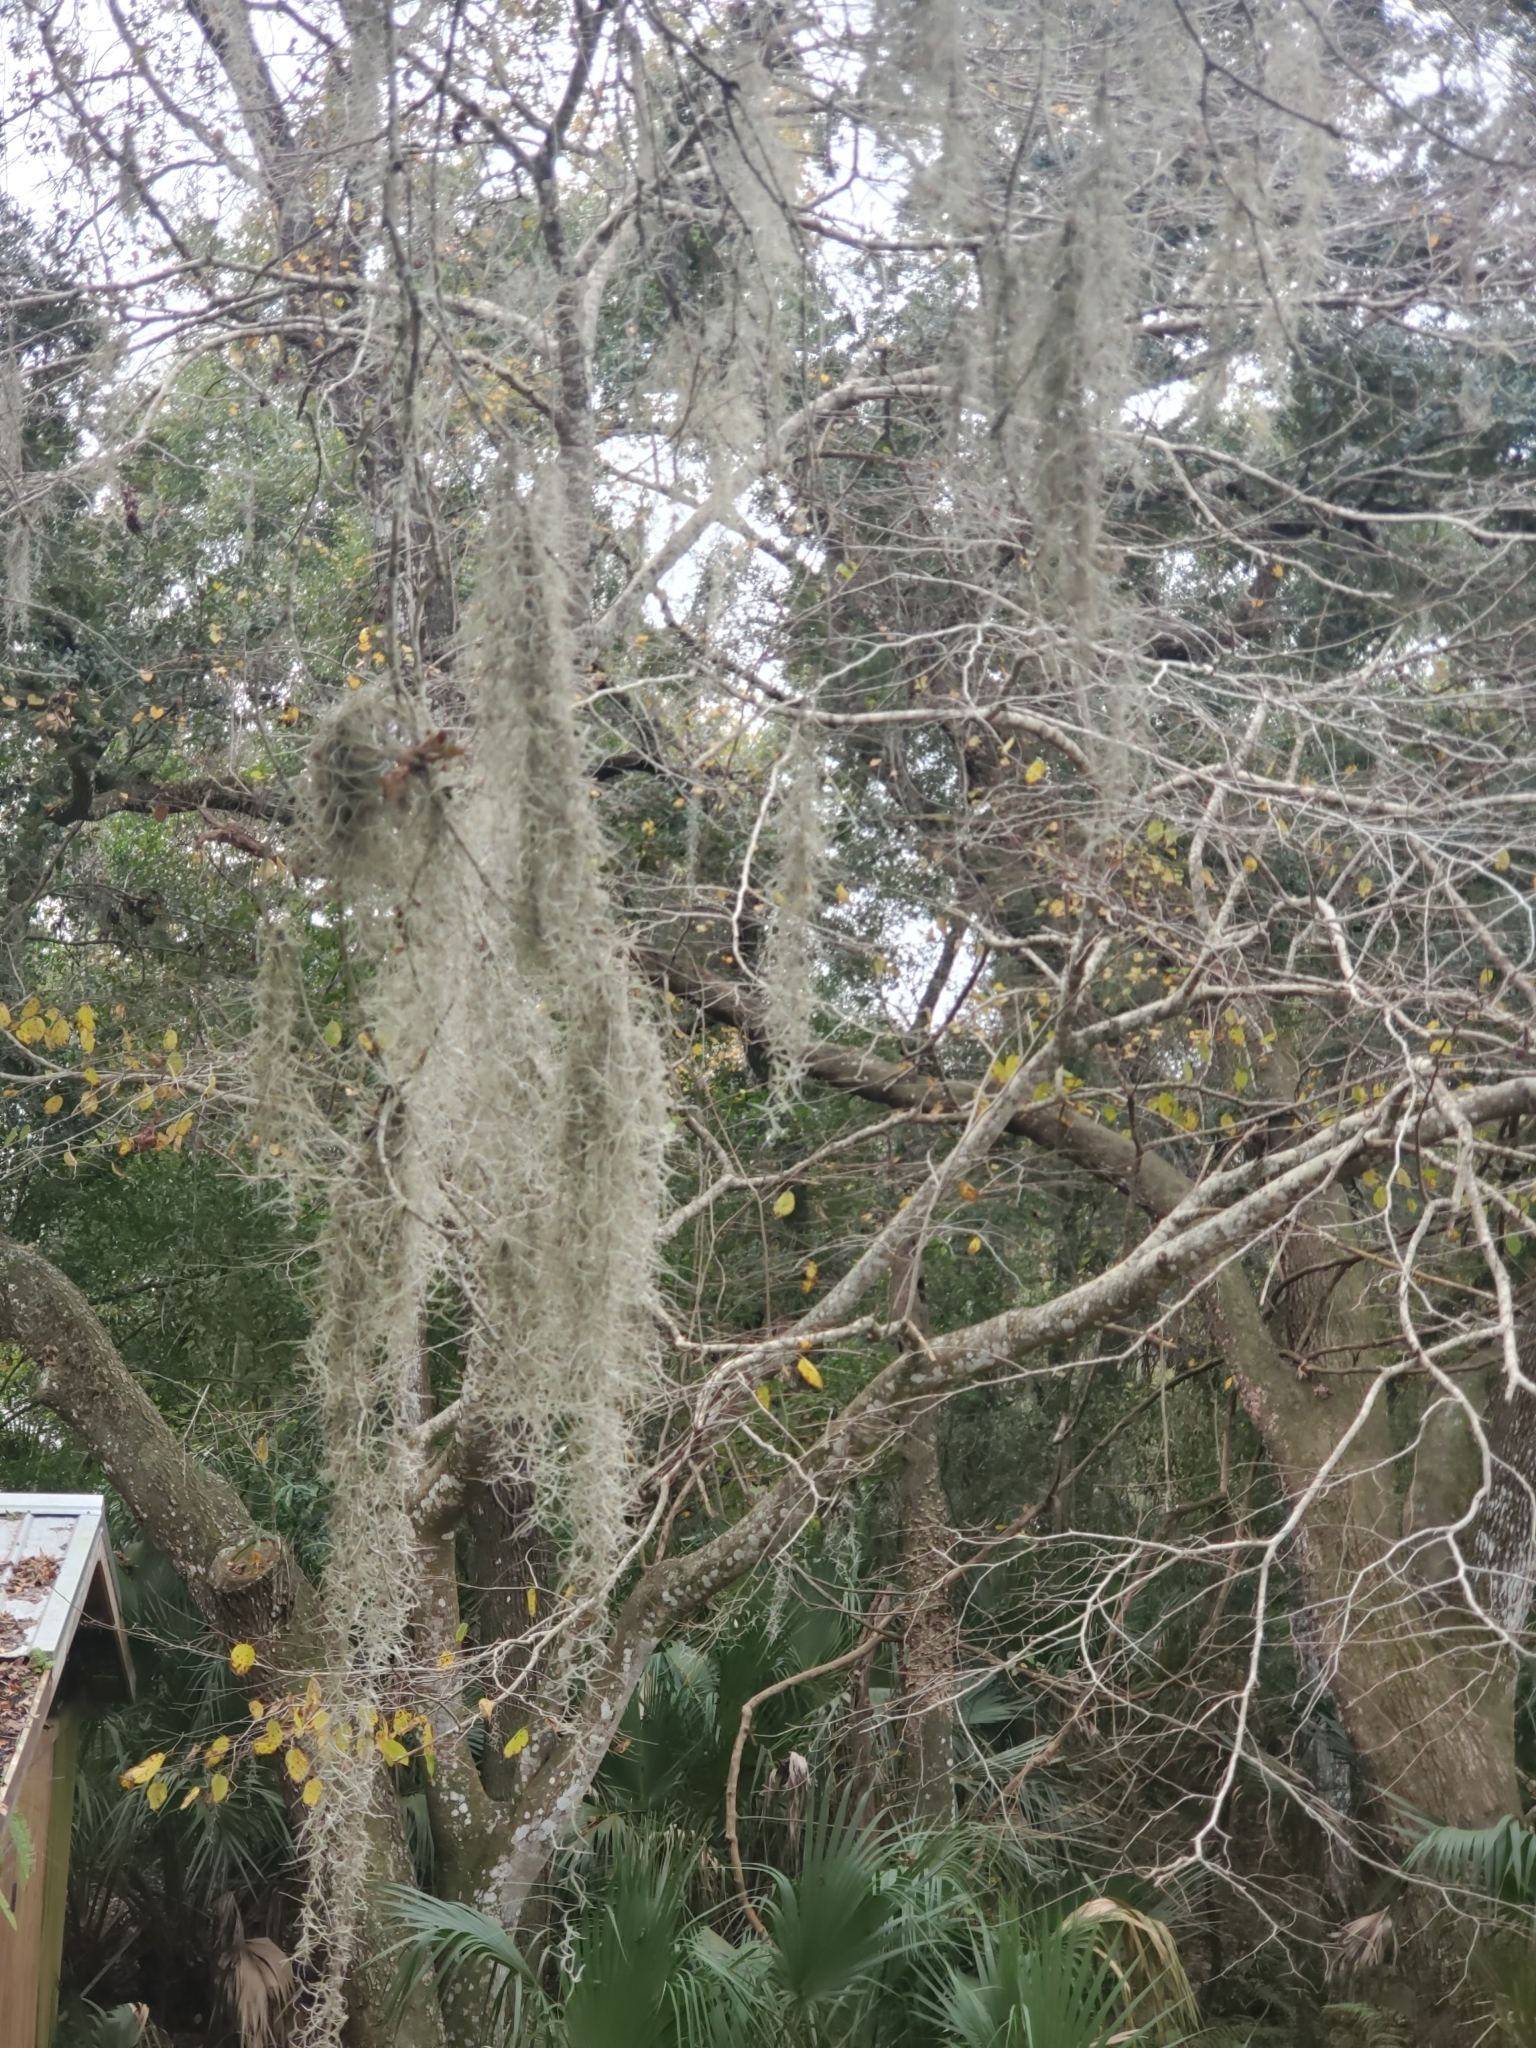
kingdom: Plantae
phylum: Tracheophyta
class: Liliopsida
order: Poales
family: Bromeliaceae
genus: Tillandsia
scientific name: Tillandsia usneoides
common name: Spanish moss
